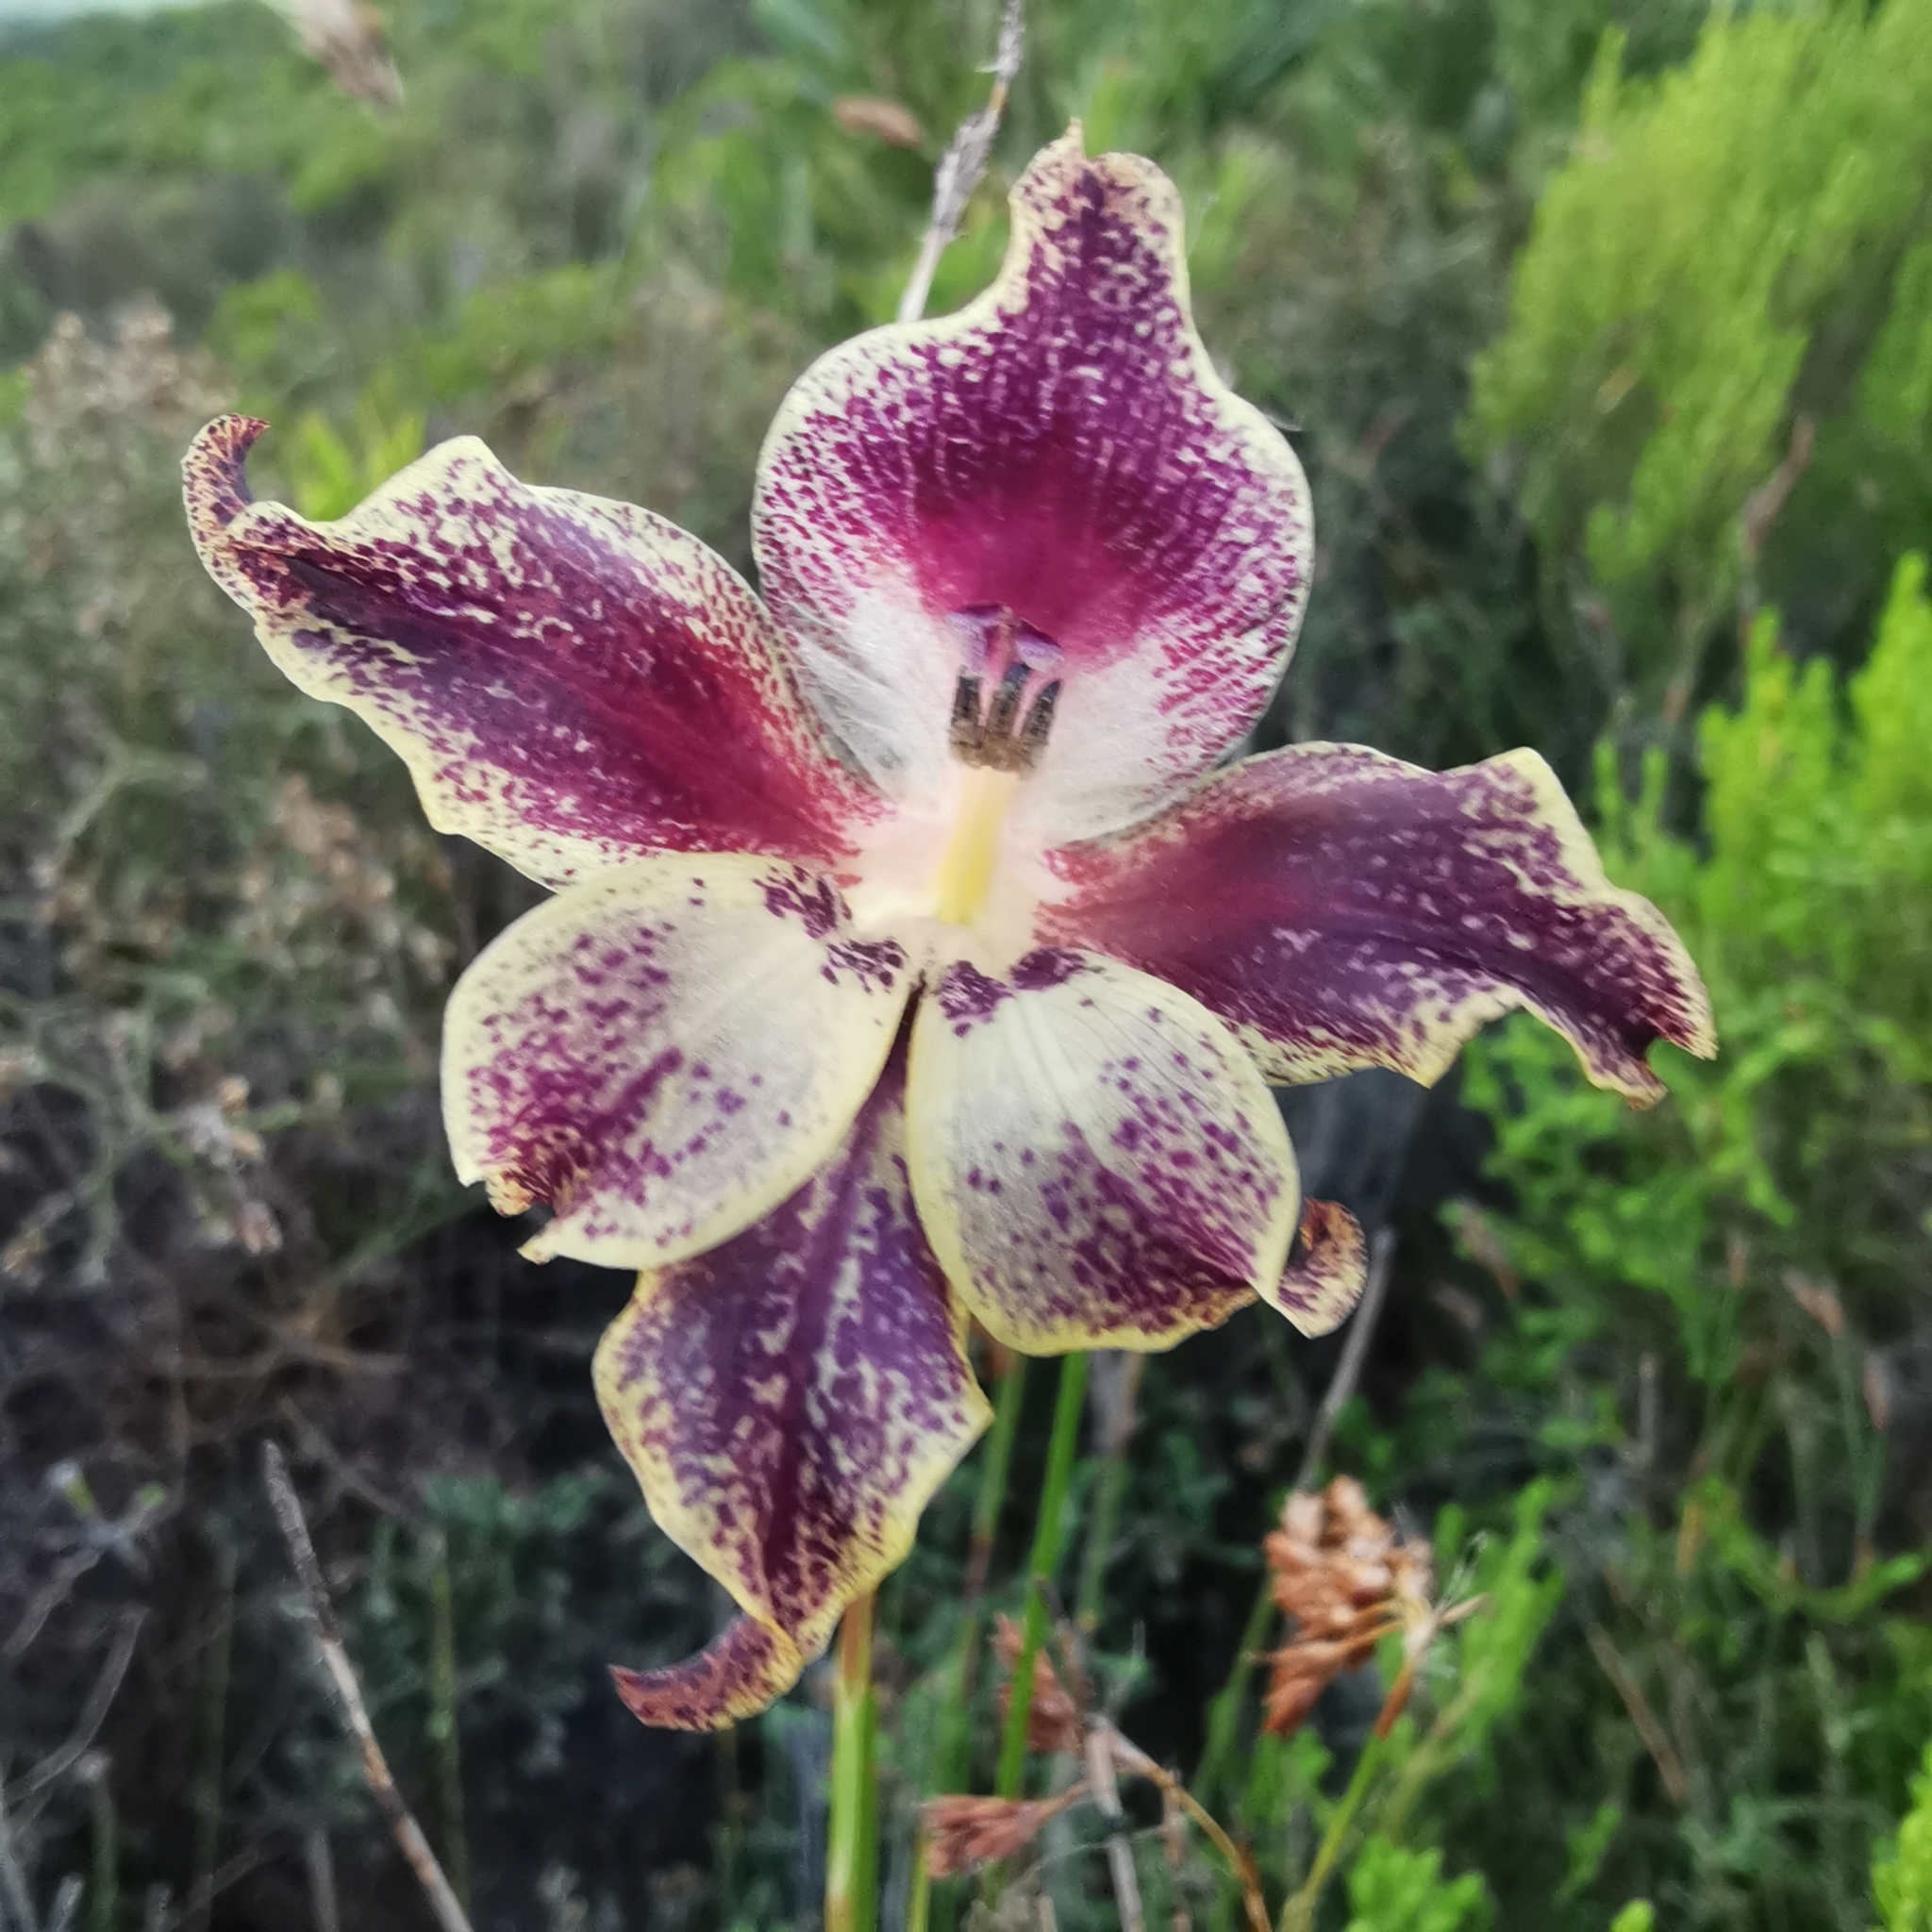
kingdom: Plantae
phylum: Tracheophyta
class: Liliopsida
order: Asparagales
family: Iridaceae
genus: Gladiolus
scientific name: Gladiolus maculatus
